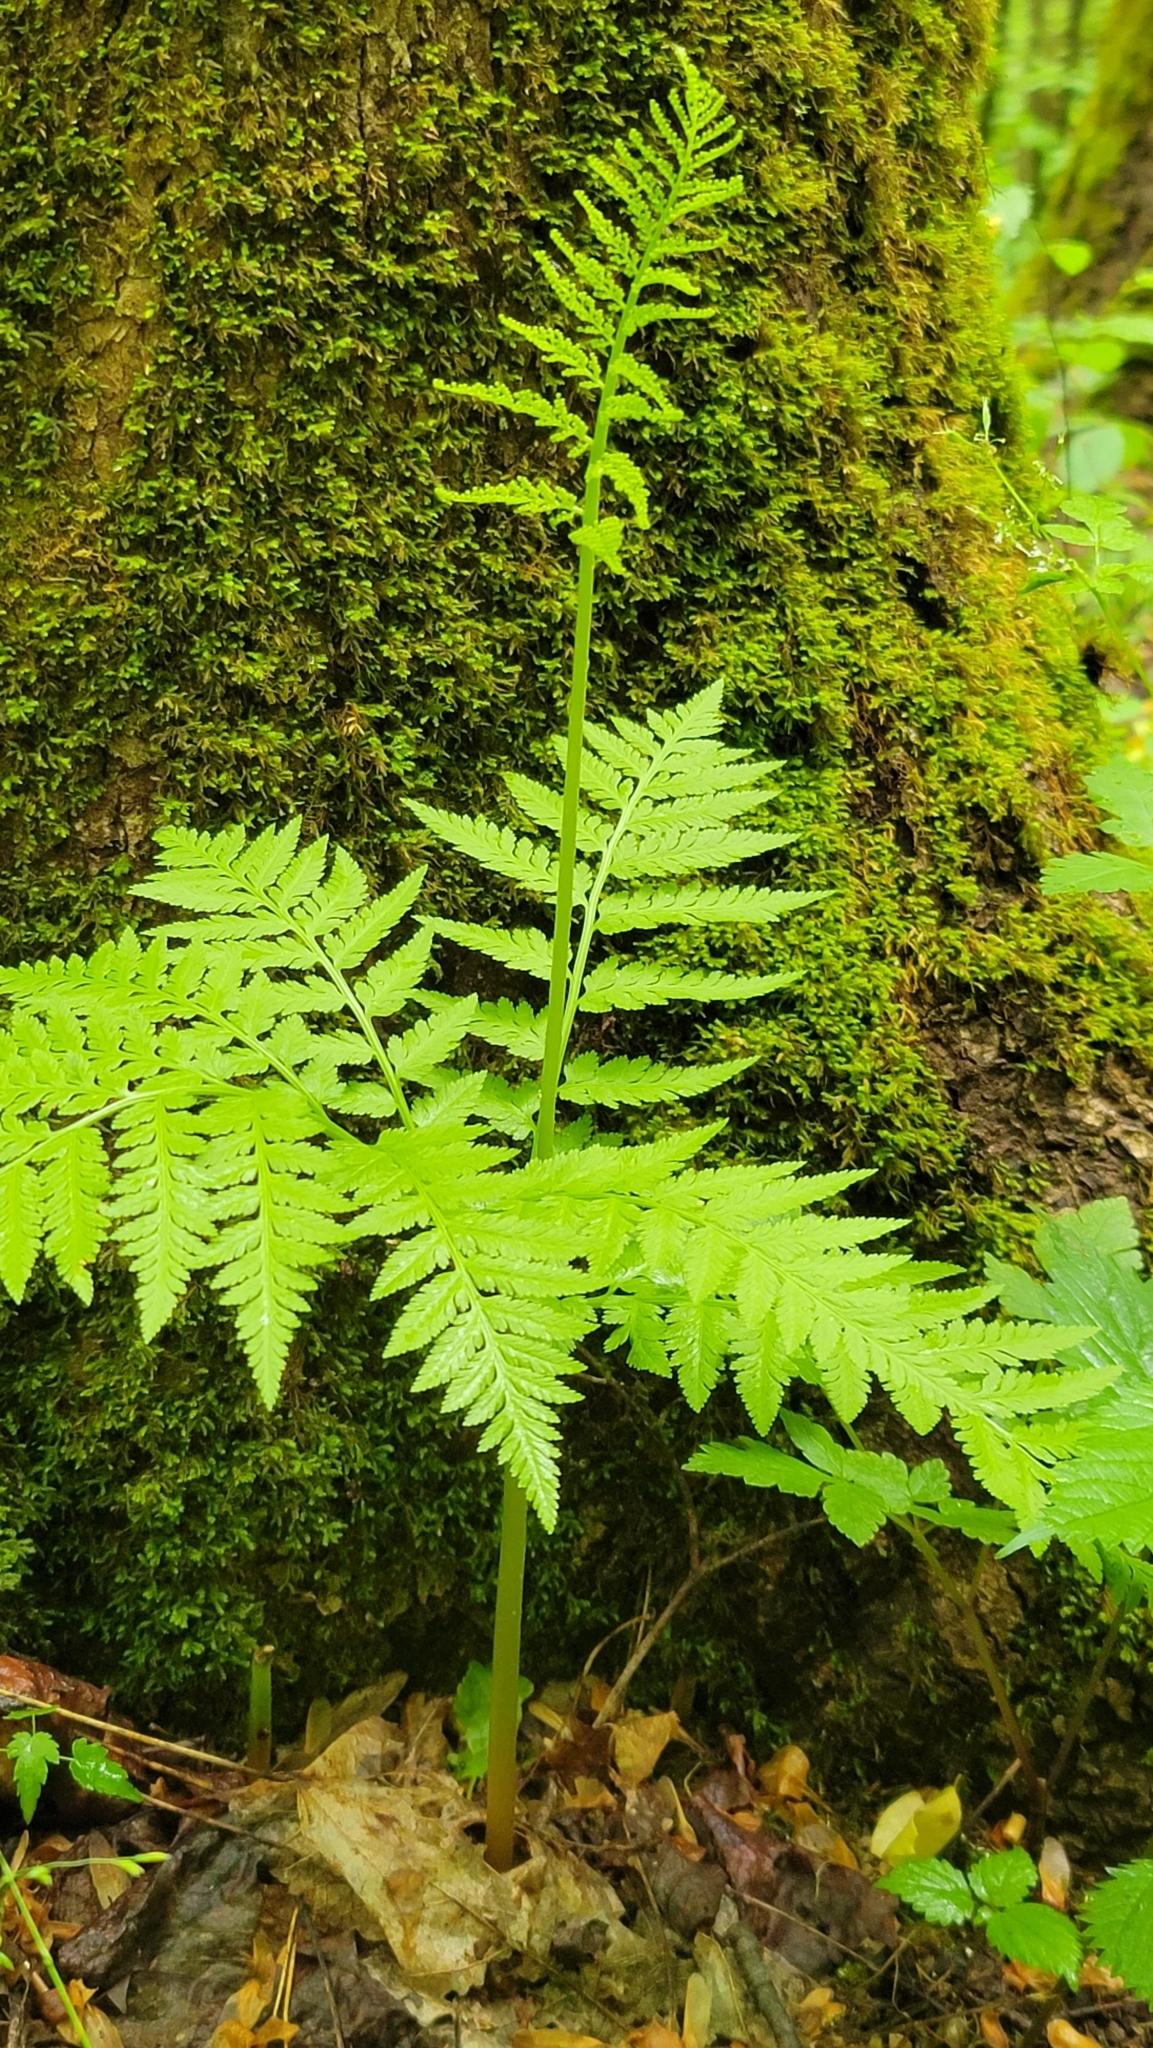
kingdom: Plantae
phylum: Tracheophyta
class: Polypodiopsida
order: Ophioglossales
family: Ophioglossaceae
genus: Botrypus
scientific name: Botrypus virginianus
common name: Common grapefern
